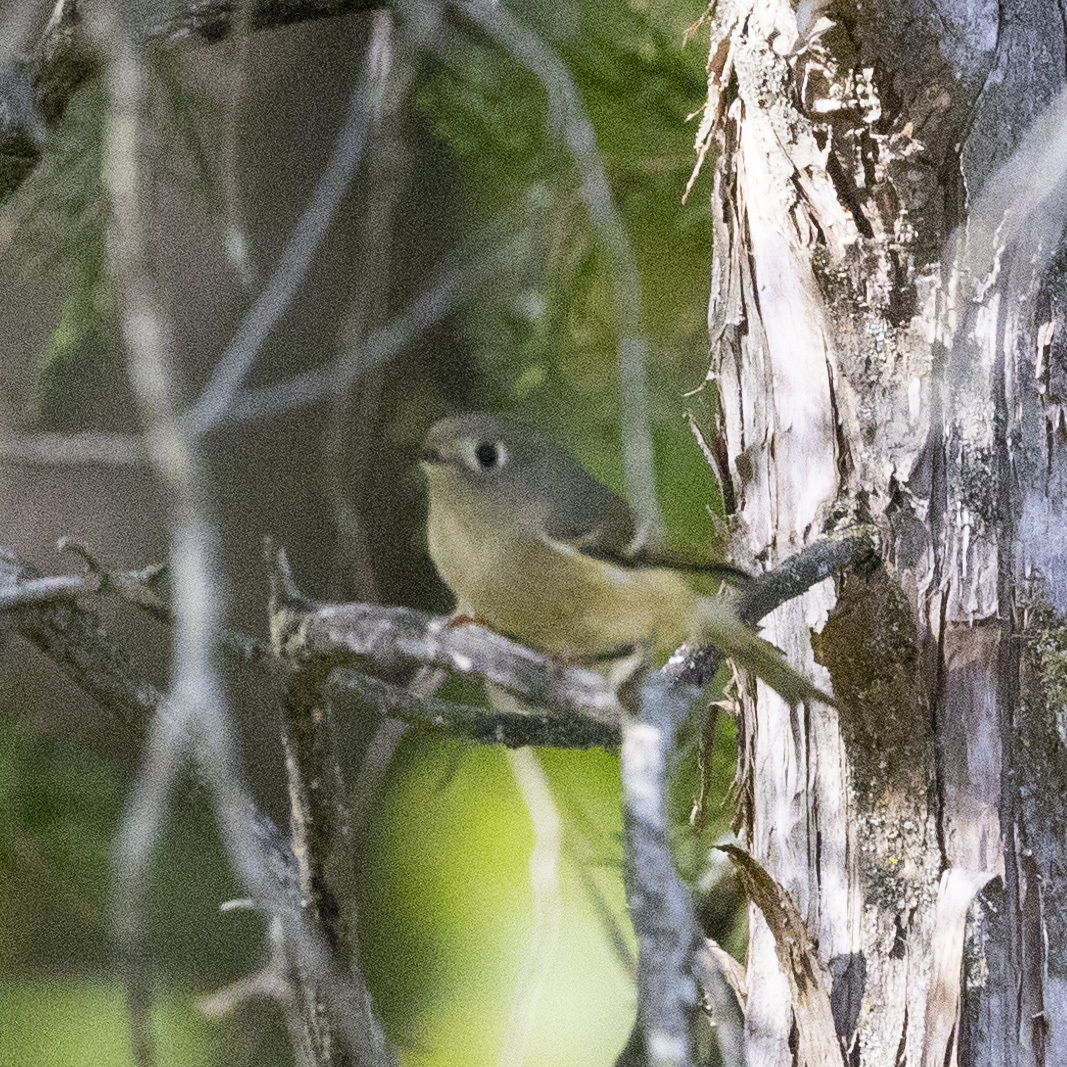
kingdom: Animalia
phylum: Chordata
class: Aves
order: Passeriformes
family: Regulidae
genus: Regulus
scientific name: Regulus calendula
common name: Ruby-crowned kinglet
